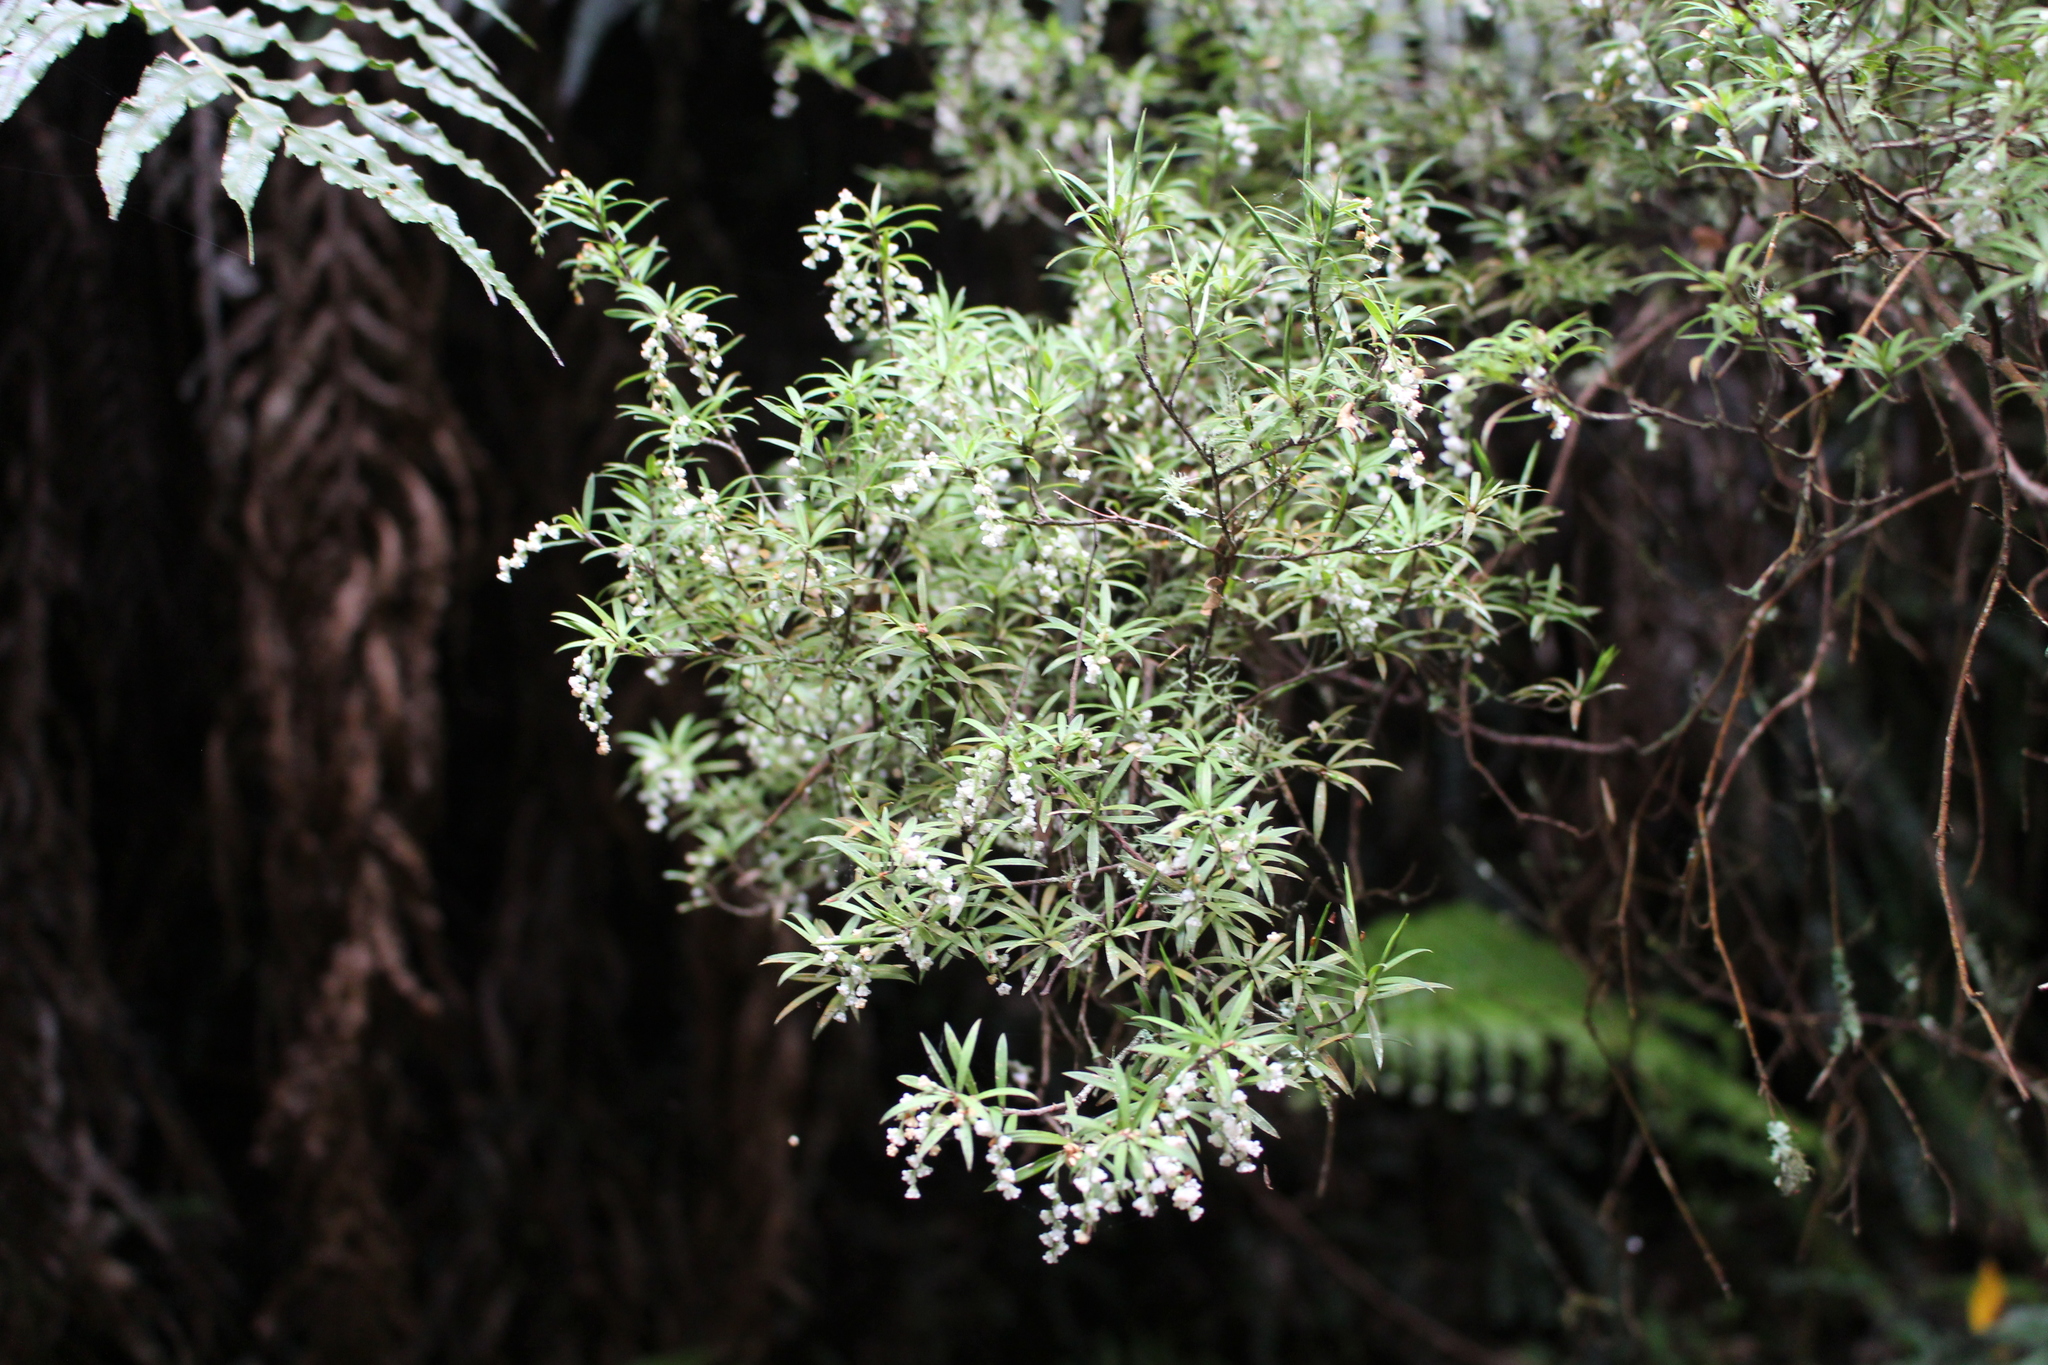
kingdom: Plantae
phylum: Tracheophyta
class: Magnoliopsida
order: Ericales
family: Ericaceae
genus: Leucopogon
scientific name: Leucopogon fasciculatus
